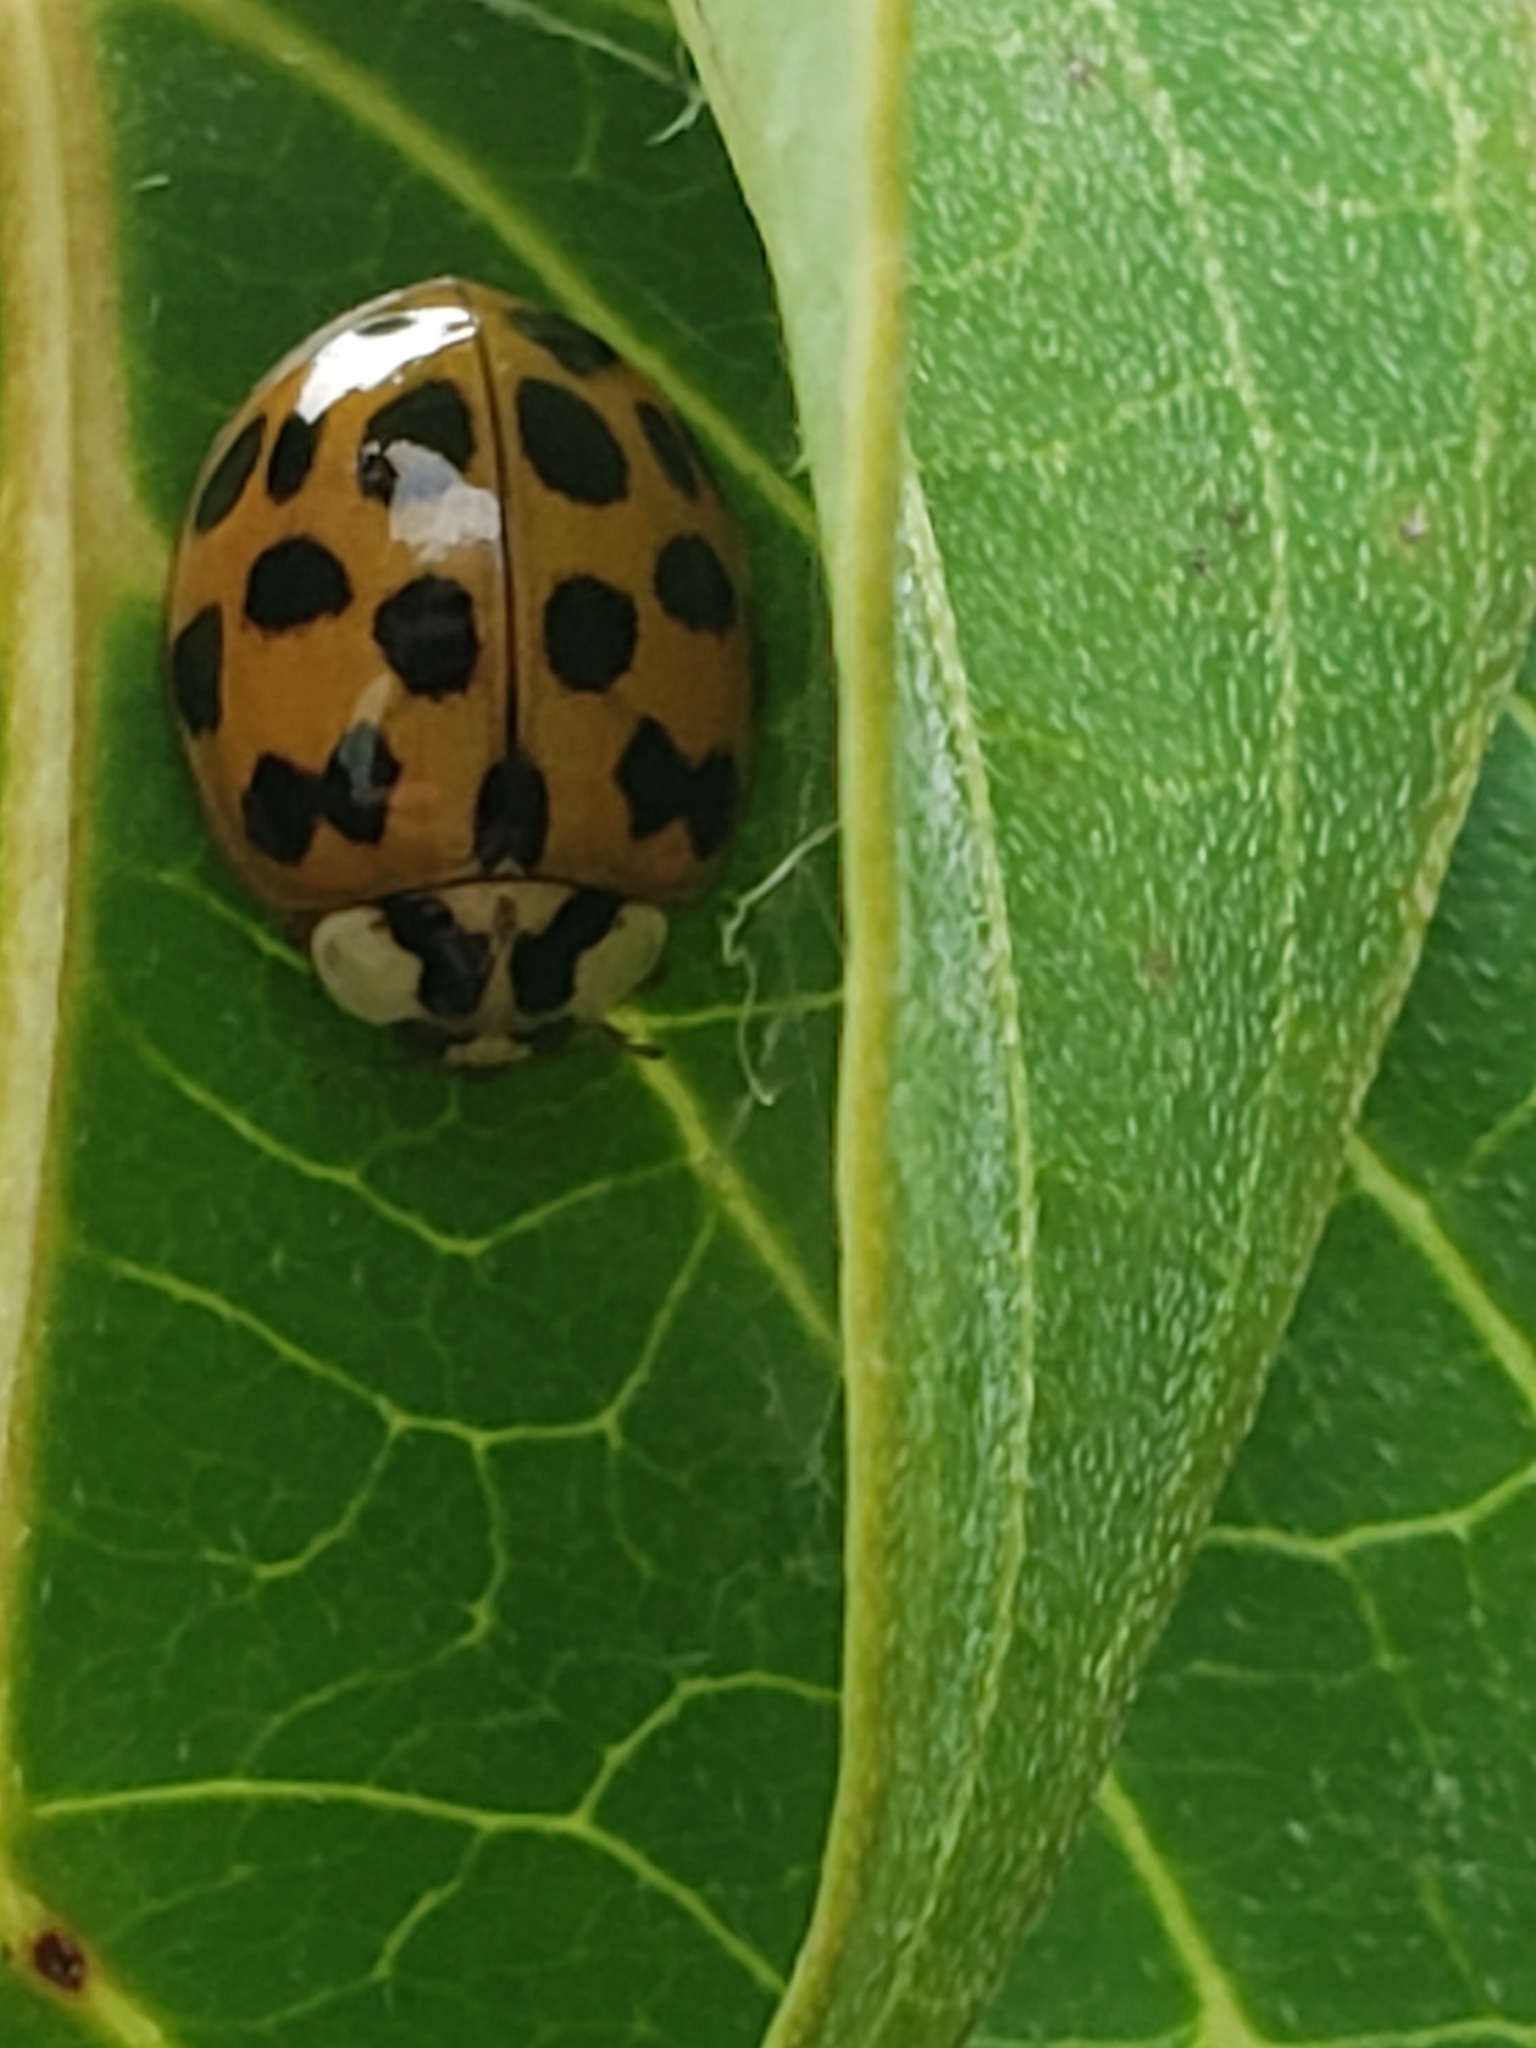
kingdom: Animalia
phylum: Arthropoda
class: Insecta
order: Coleoptera
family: Coccinellidae
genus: Harmonia
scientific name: Harmonia axyridis
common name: Harlequin ladybird
